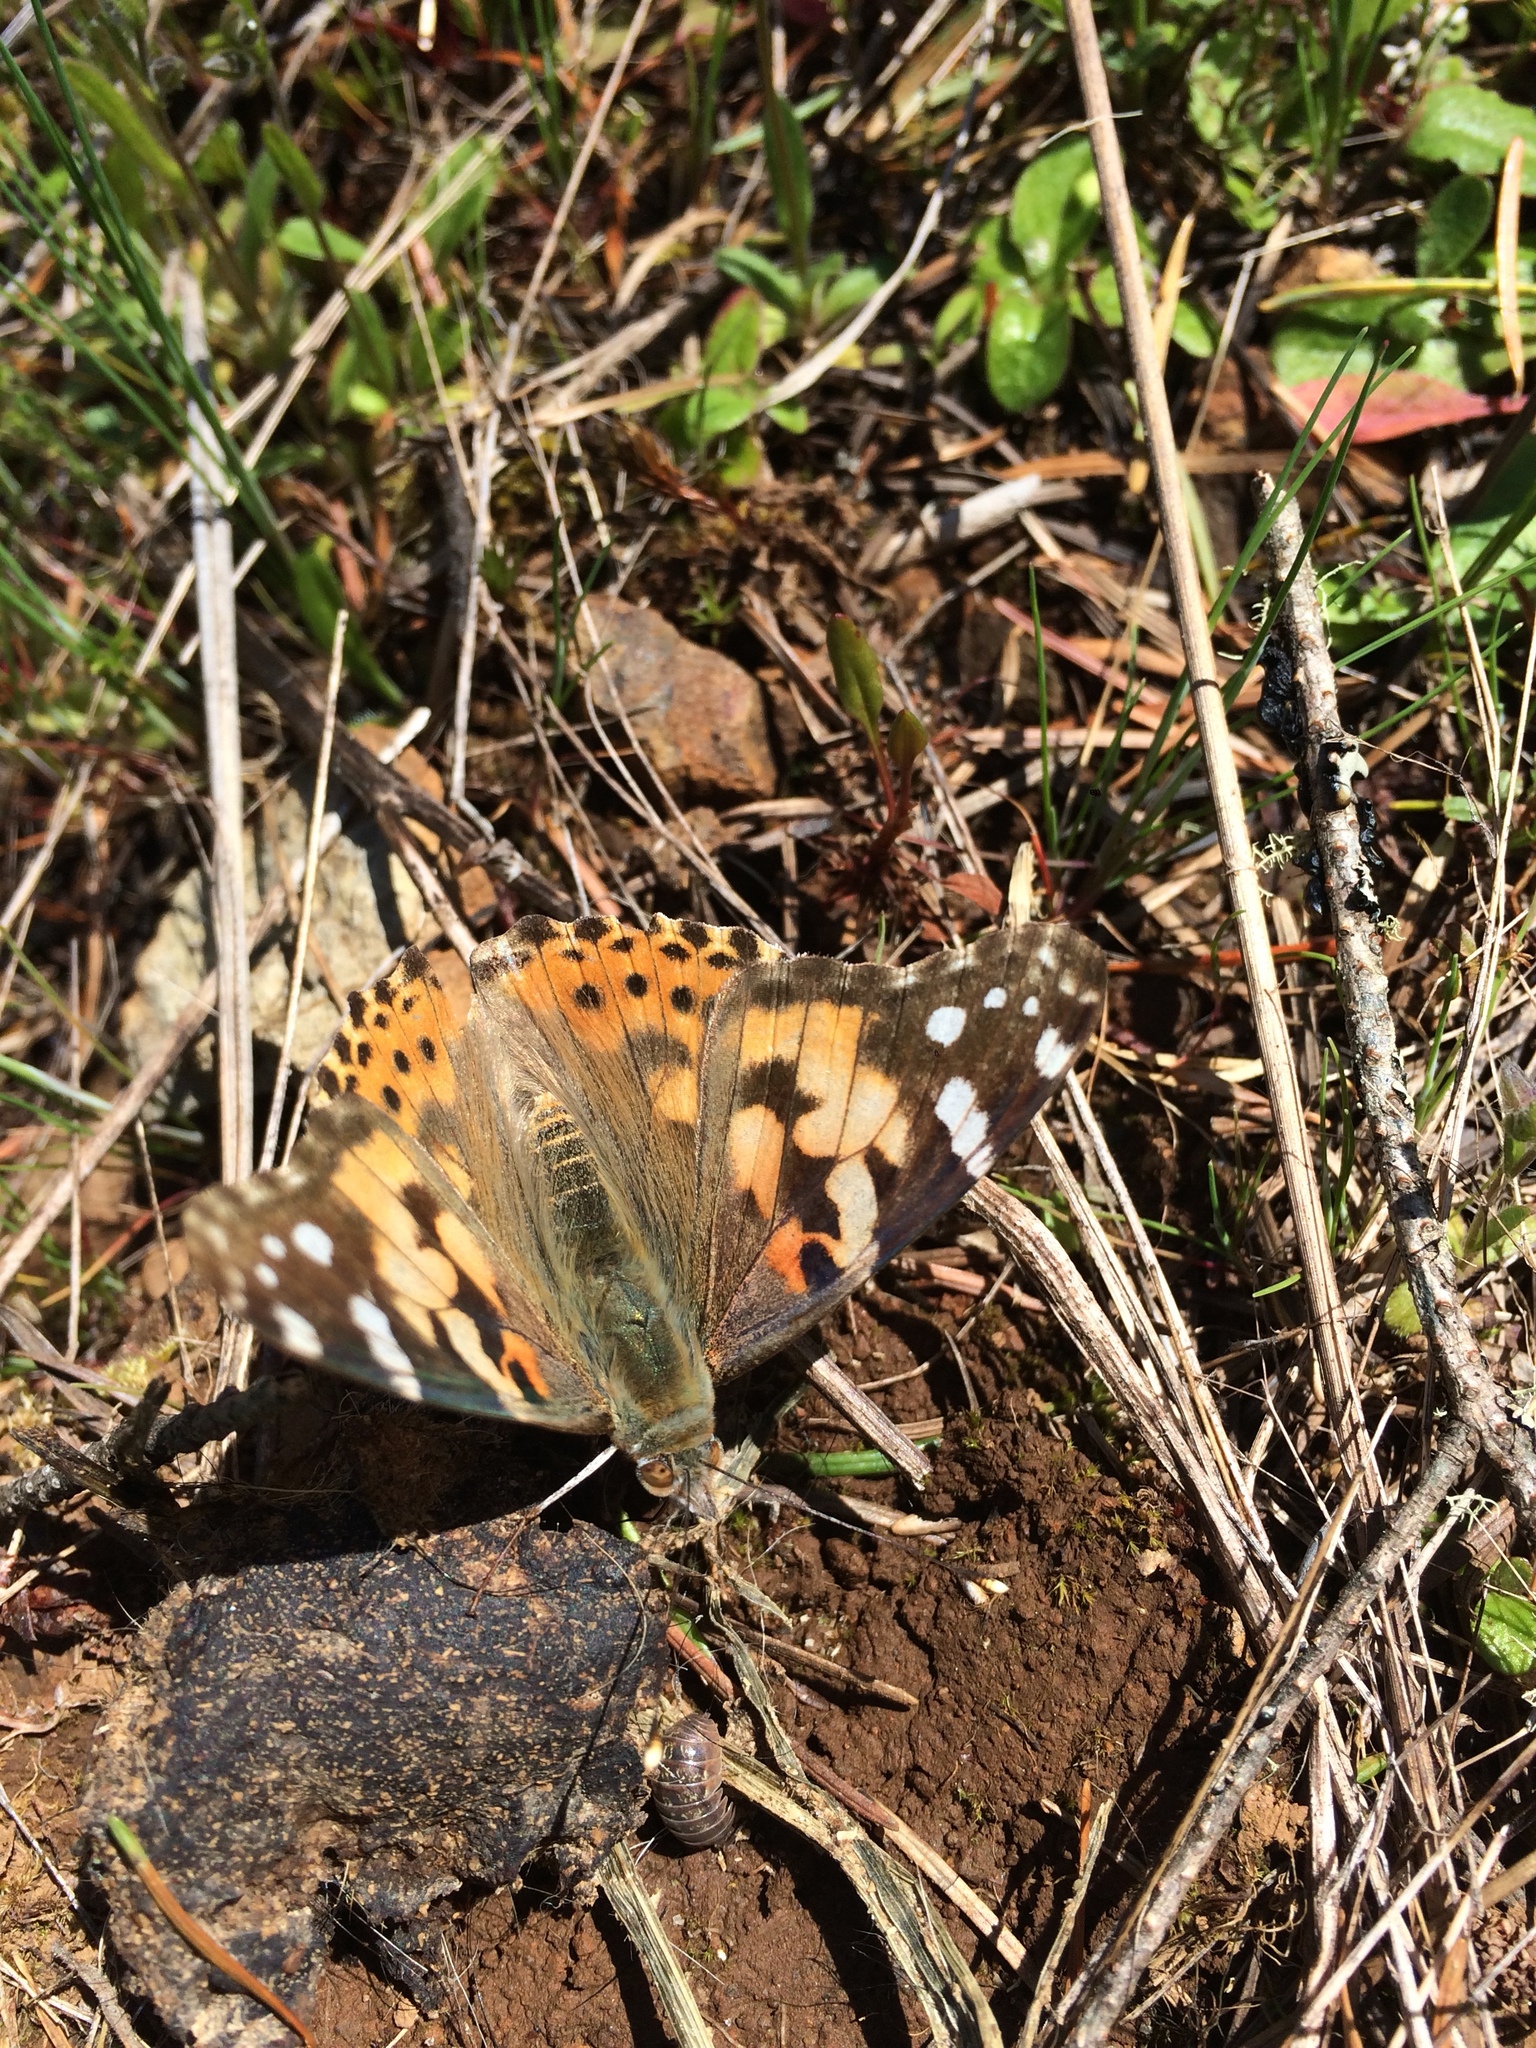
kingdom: Animalia
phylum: Arthropoda
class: Insecta
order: Lepidoptera
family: Nymphalidae
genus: Vanessa
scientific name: Vanessa cardui
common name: Painted lady
